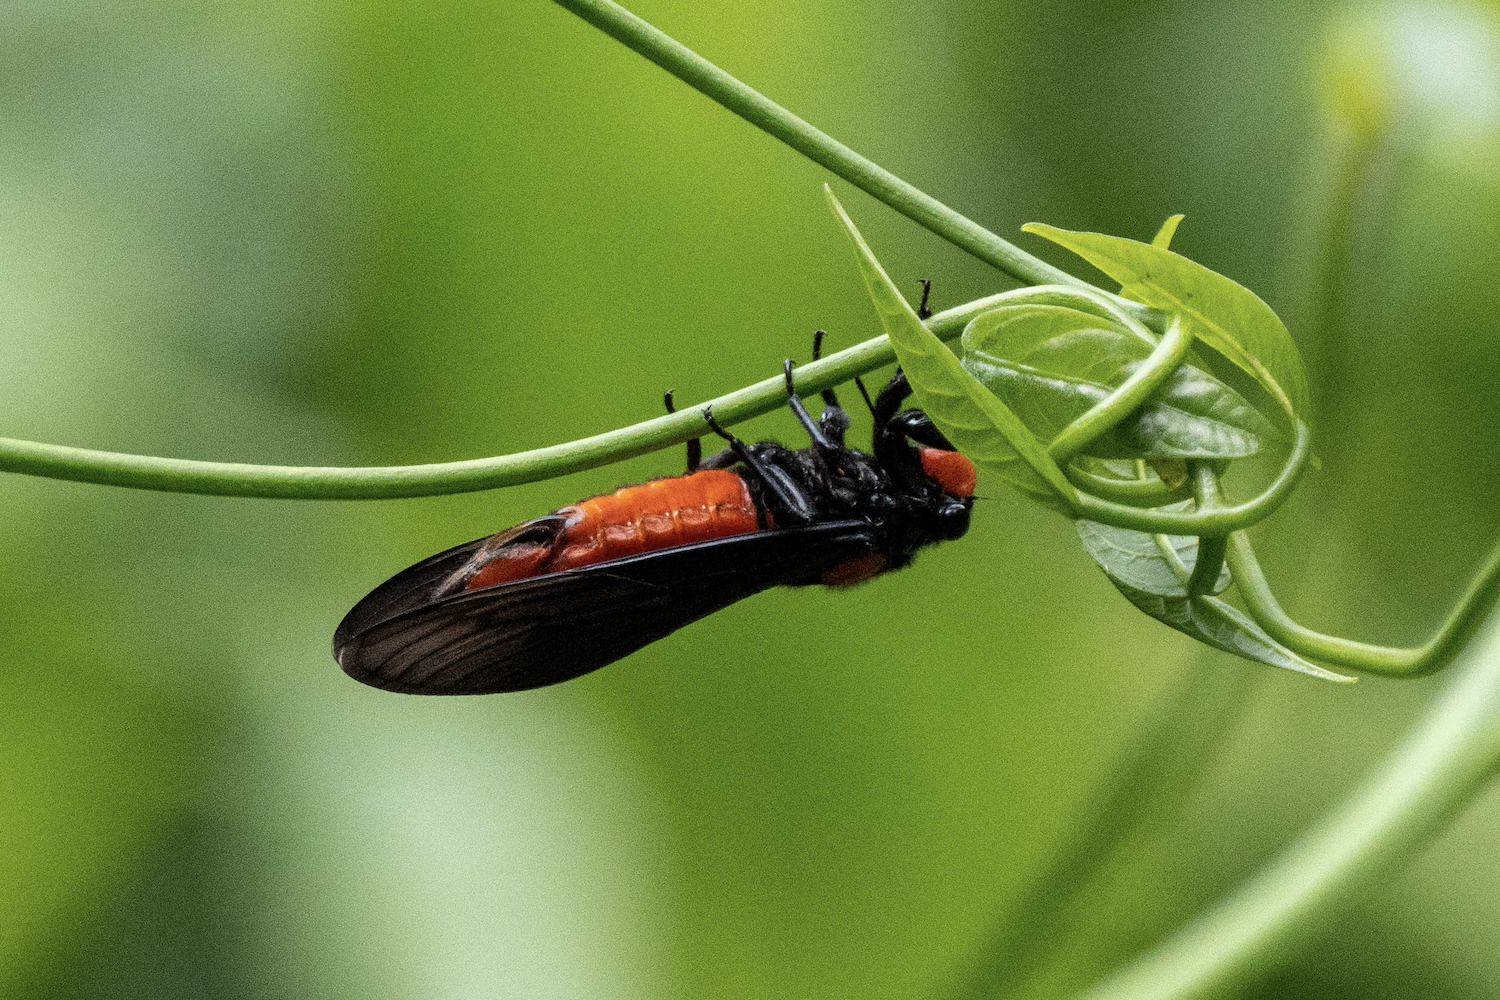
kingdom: Animalia
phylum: Arthropoda
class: Insecta
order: Hemiptera
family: Cicadidae
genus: Huechys
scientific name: Huechys sanguinea
